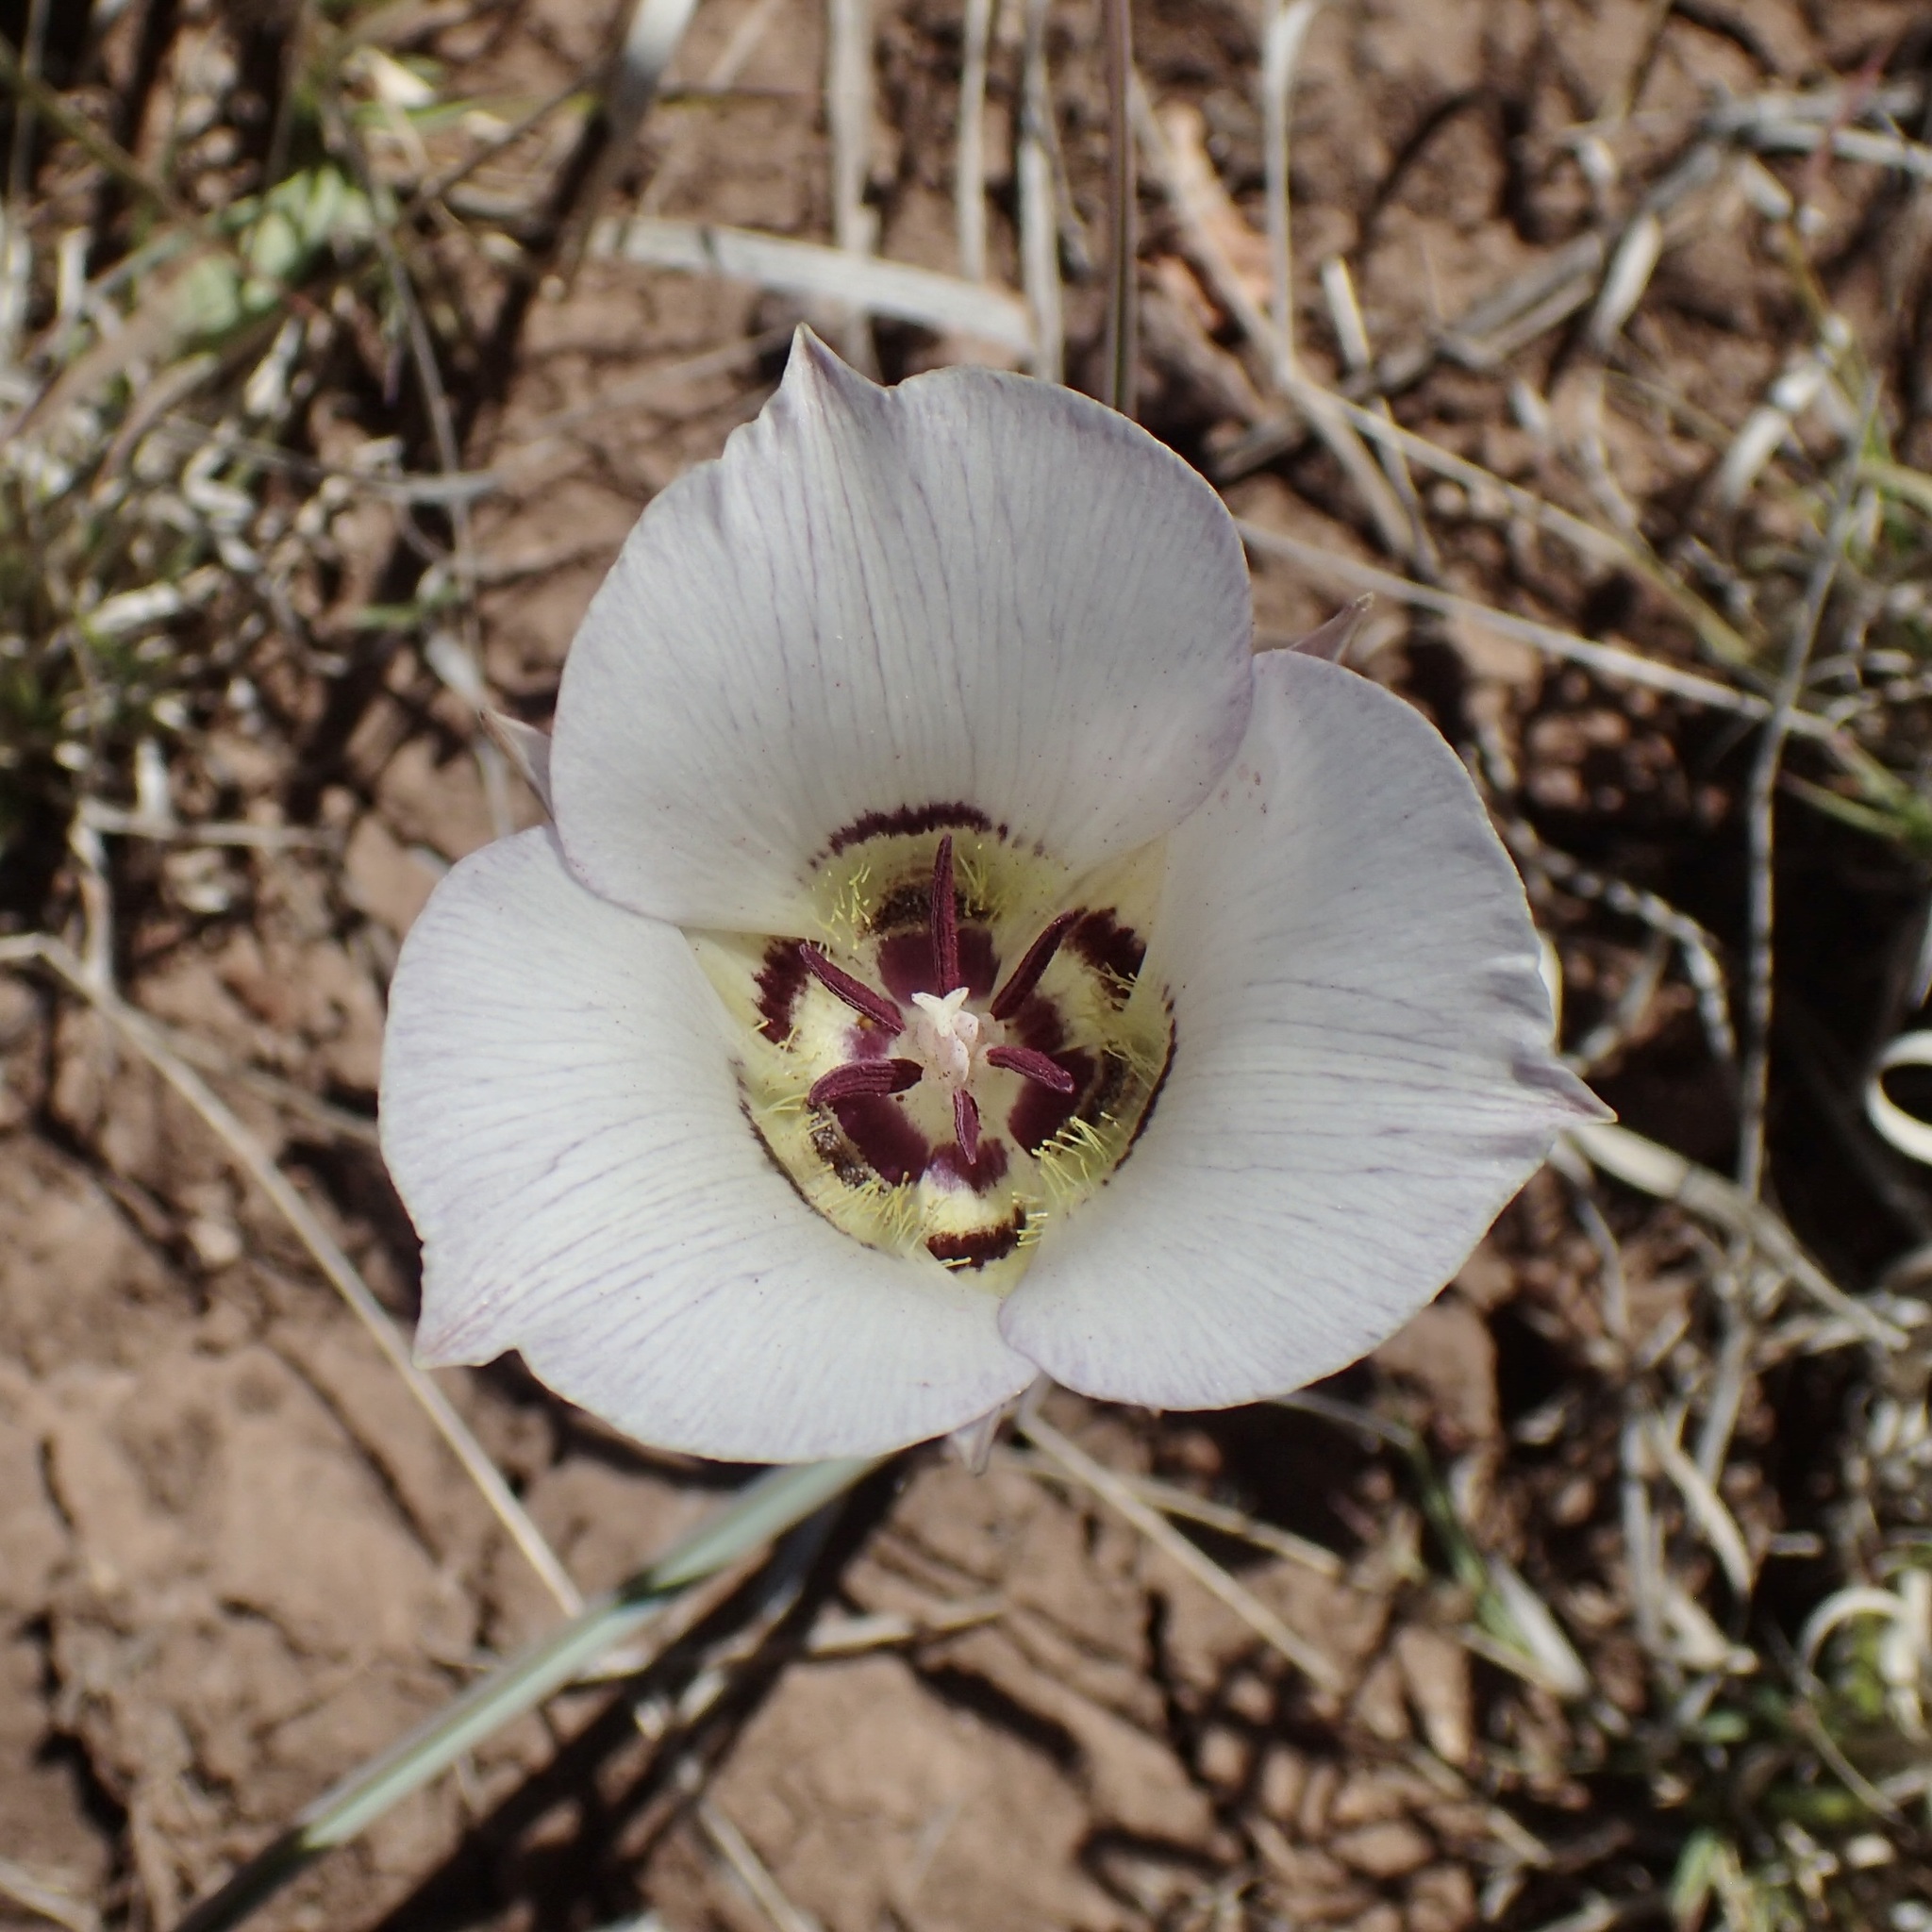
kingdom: Plantae
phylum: Tracheophyta
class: Liliopsida
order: Liliales
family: Liliaceae
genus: Calochortus
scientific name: Calochortus ambiguus
